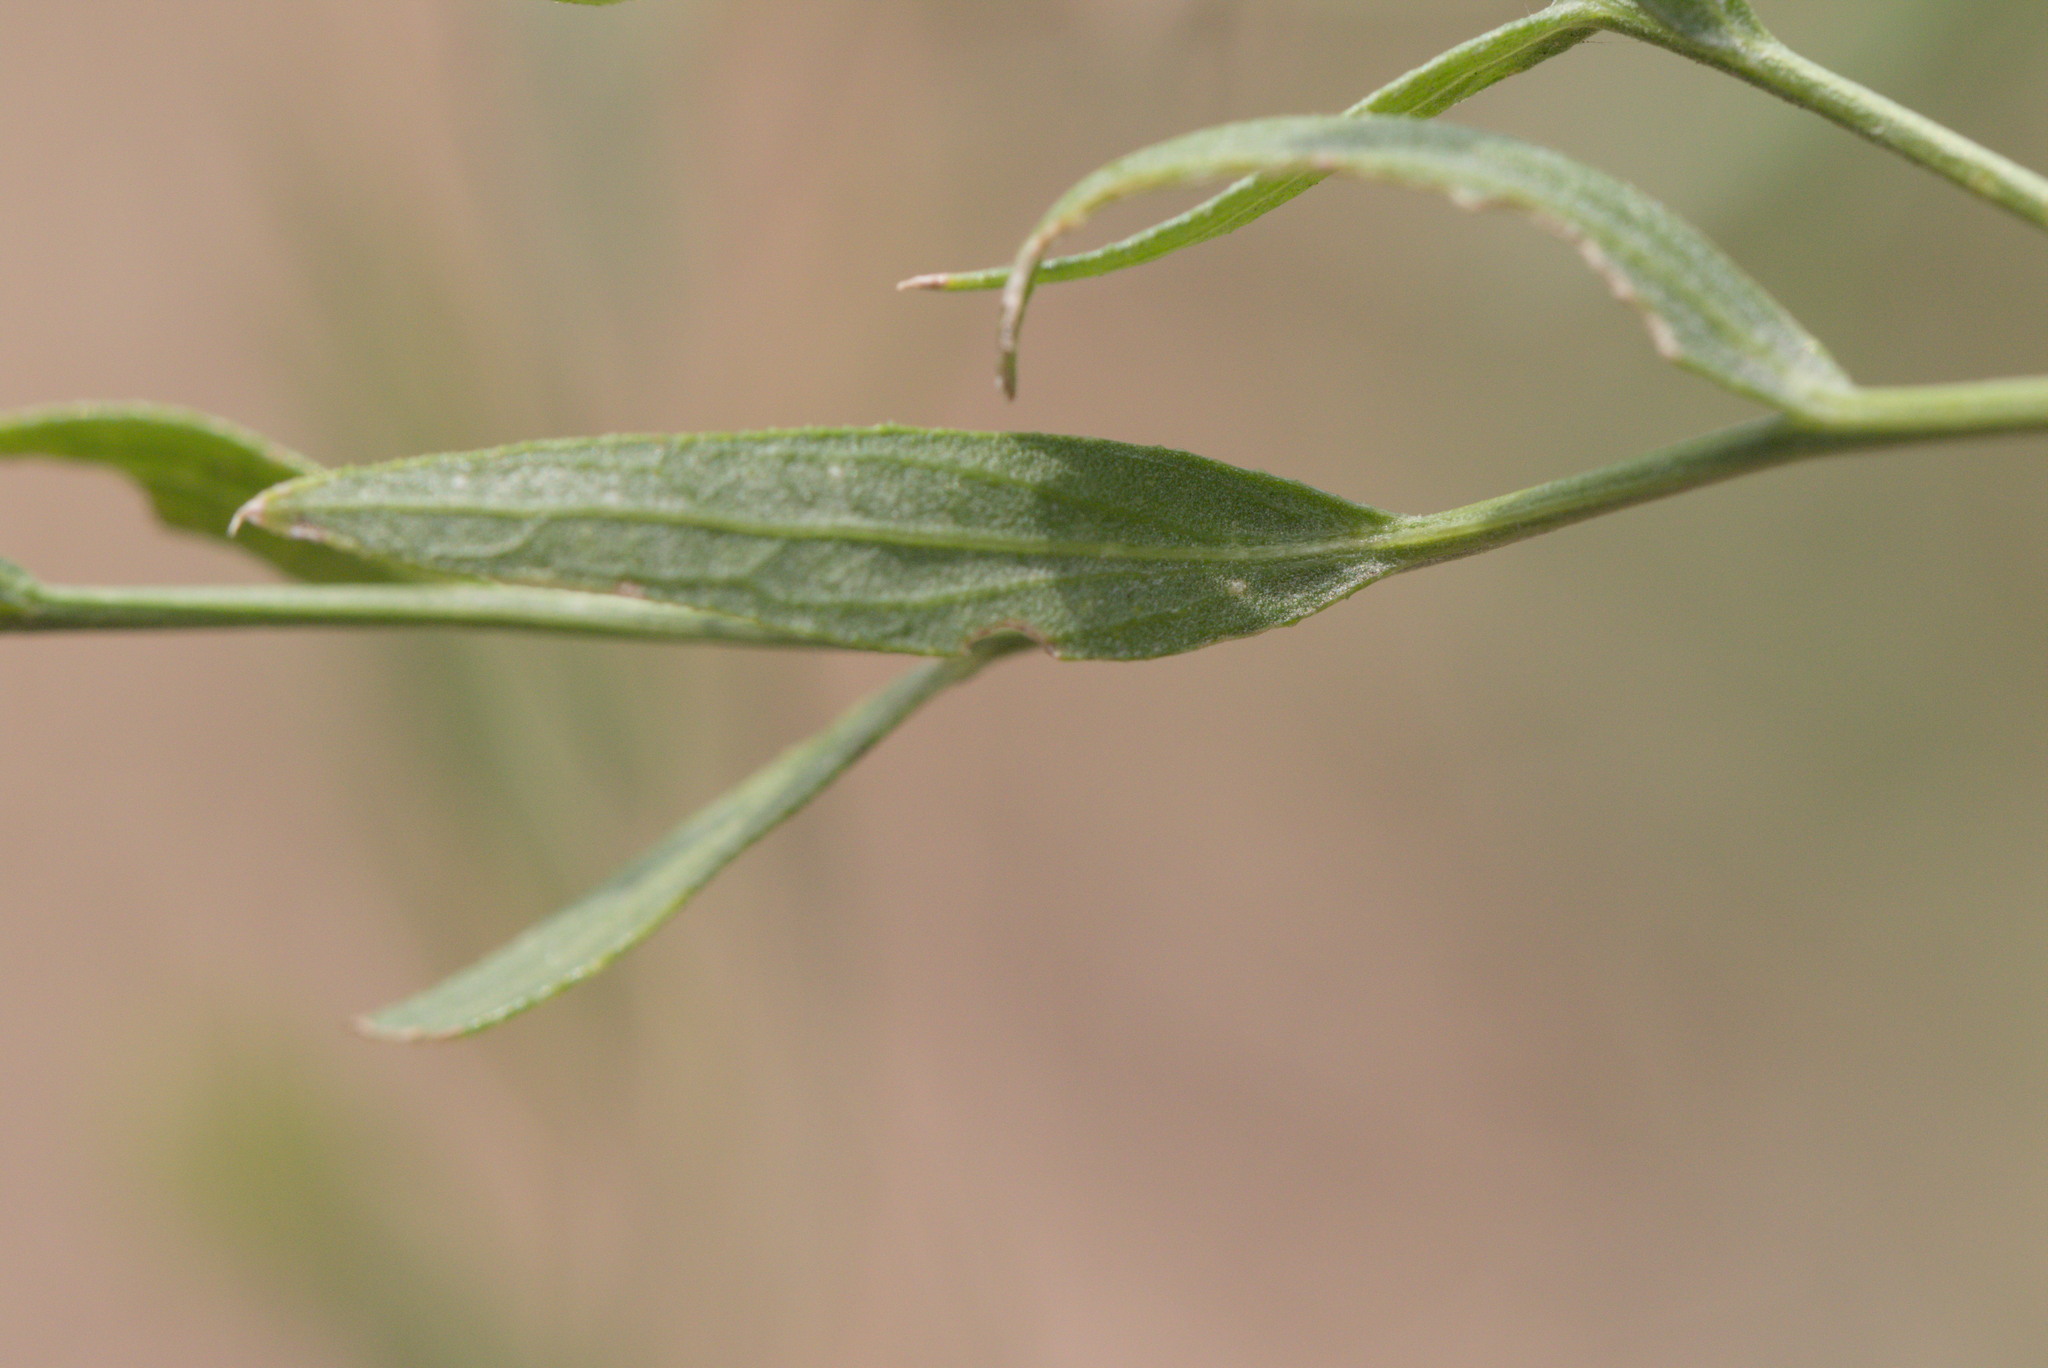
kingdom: Plantae
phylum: Tracheophyta
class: Magnoliopsida
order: Asterales
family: Asteraceae
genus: Leuzea
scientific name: Leuzea repens
